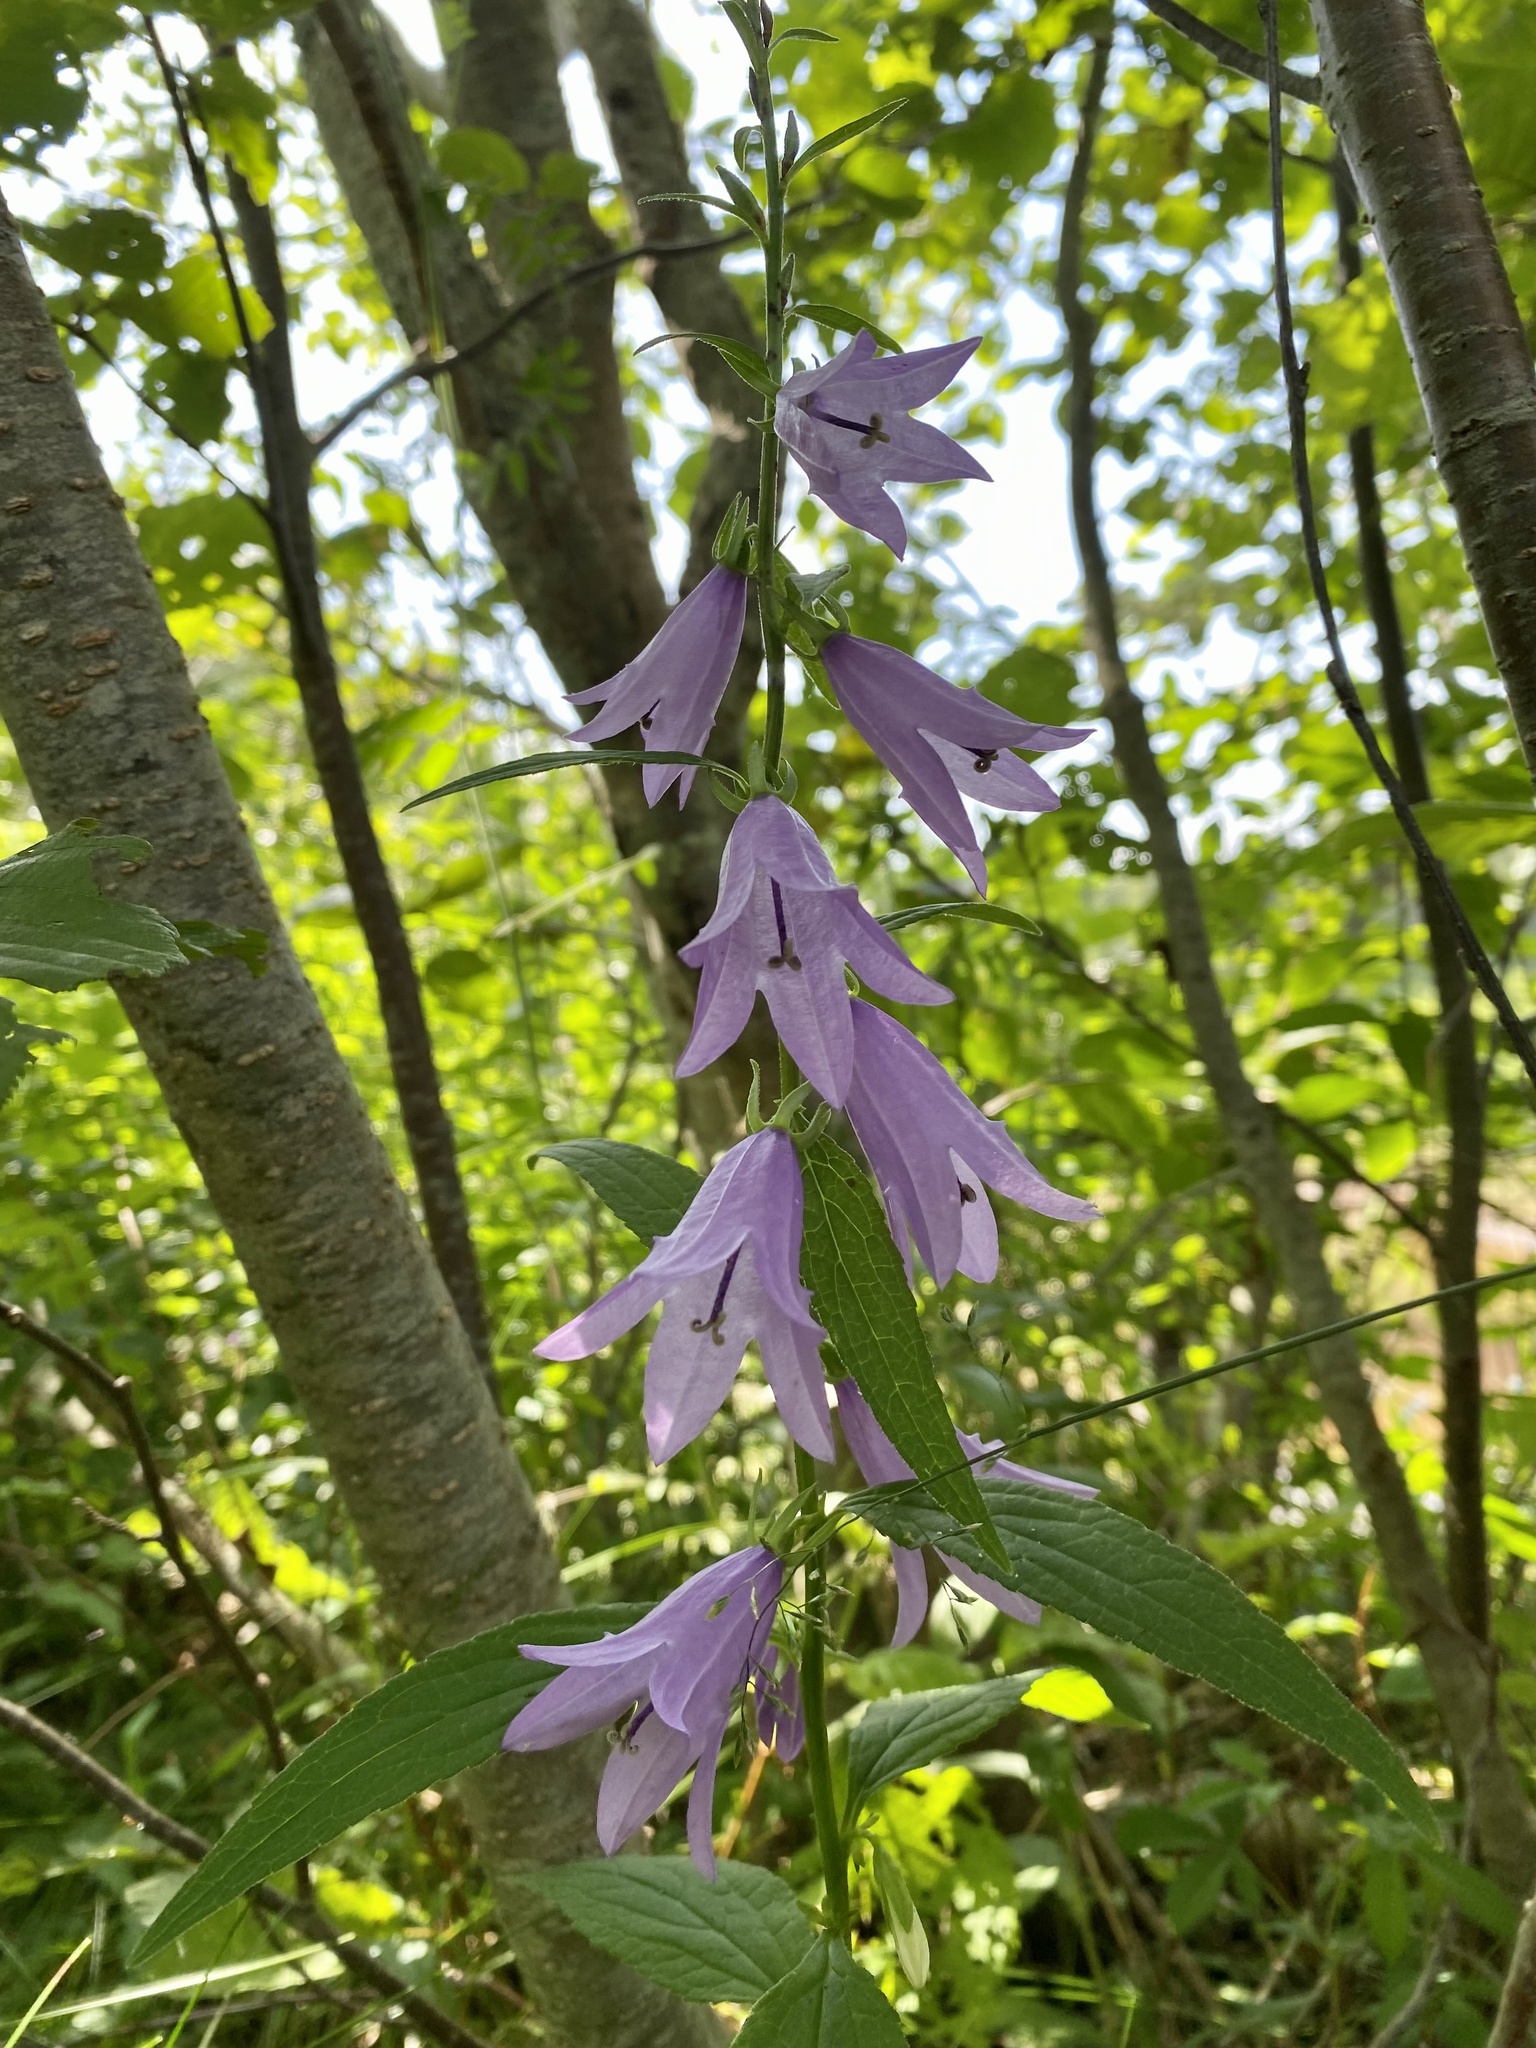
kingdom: Plantae
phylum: Tracheophyta
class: Magnoliopsida
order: Asterales
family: Campanulaceae
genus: Campanula
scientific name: Campanula rapunculoides
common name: Creeping bellflower
